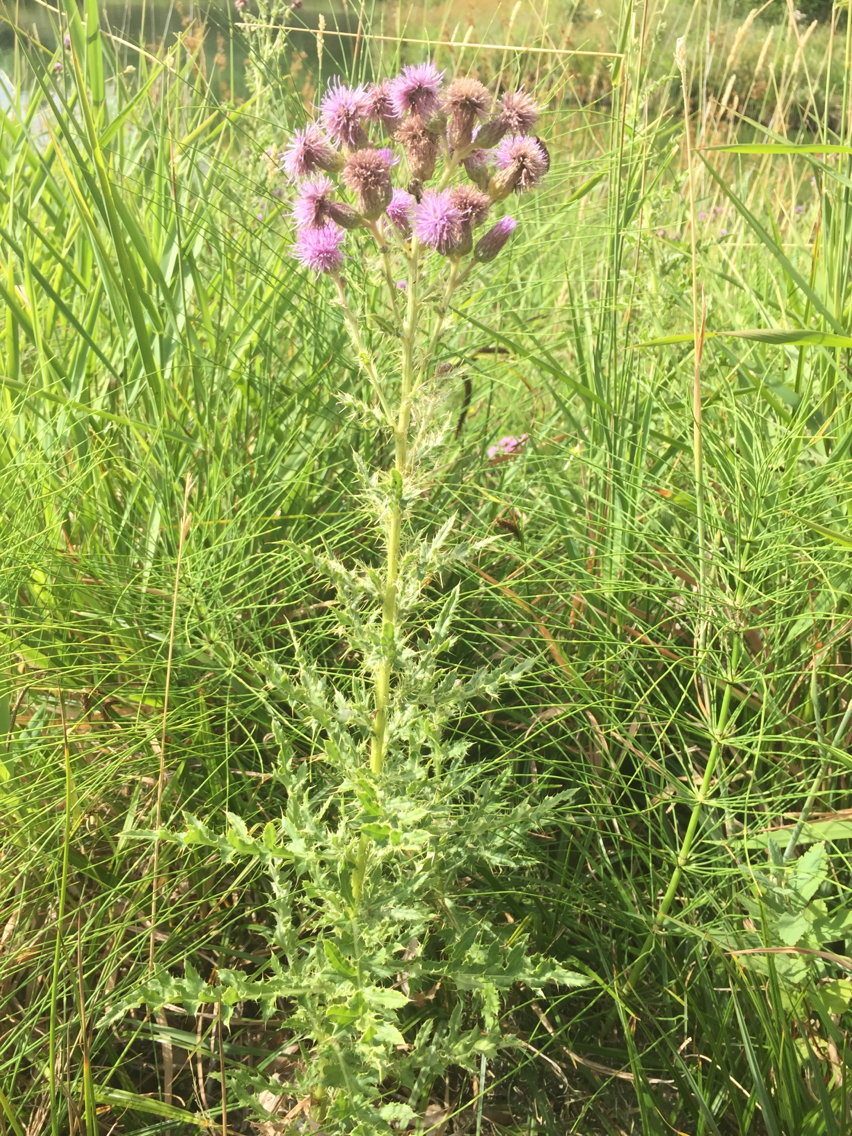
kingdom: Plantae
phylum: Tracheophyta
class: Magnoliopsida
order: Asterales
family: Asteraceae
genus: Cirsium
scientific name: Cirsium arvense
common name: Creeping thistle
